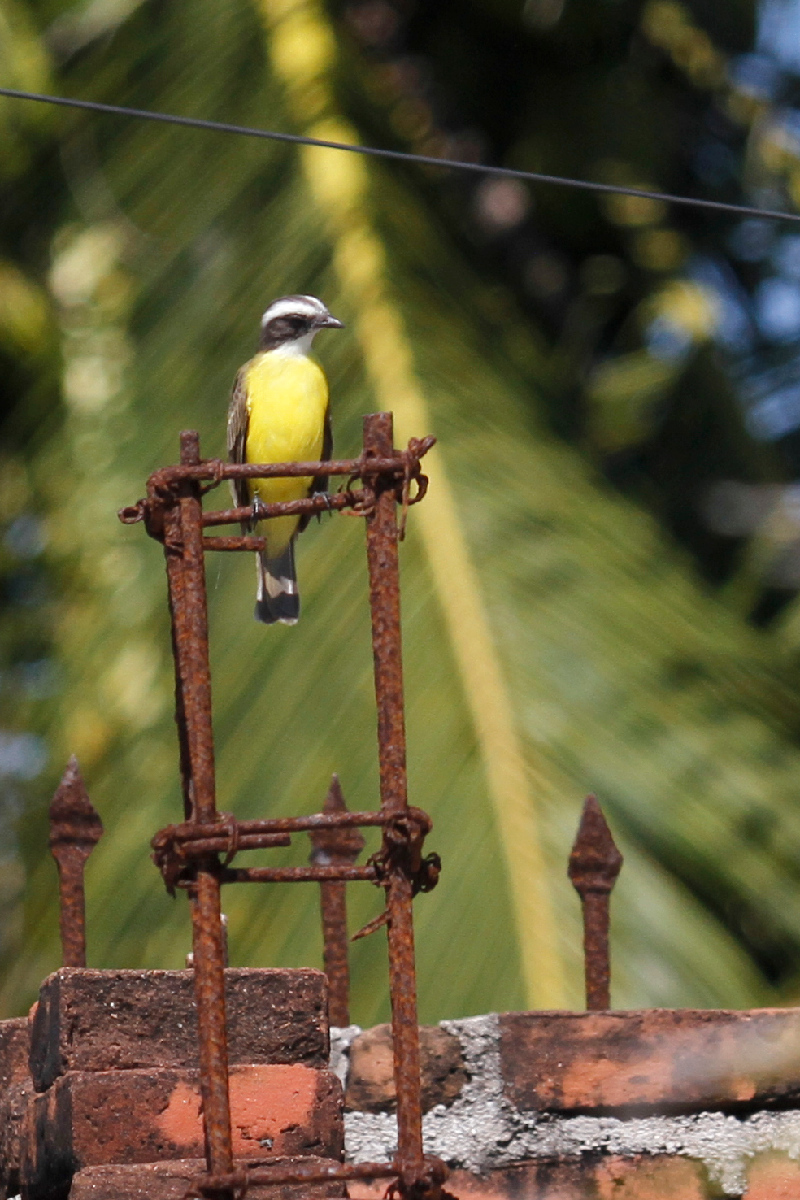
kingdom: Animalia
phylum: Chordata
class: Aves
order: Passeriformes
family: Tyrannidae
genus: Myiozetetes
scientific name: Myiozetetes similis
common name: Social flycatcher
